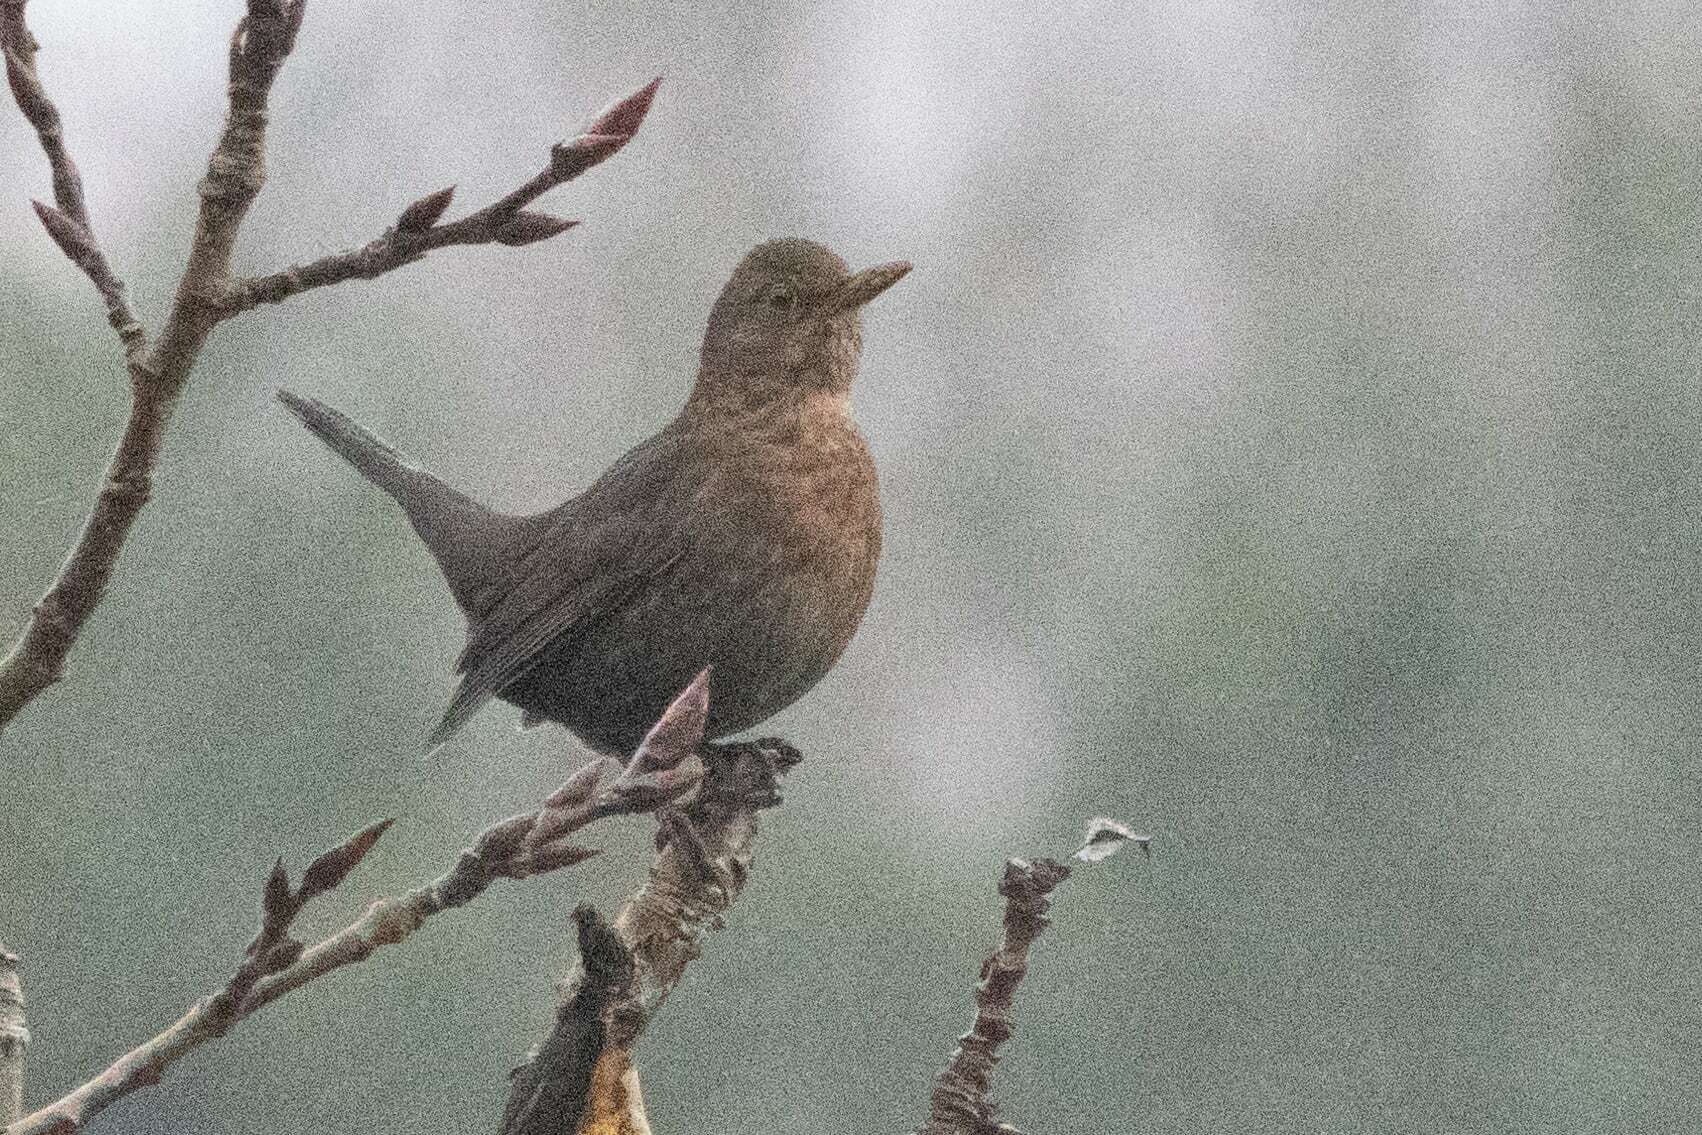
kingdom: Animalia
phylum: Chordata
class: Aves
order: Passeriformes
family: Turdidae
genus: Turdus
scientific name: Turdus merula
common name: Common blackbird
